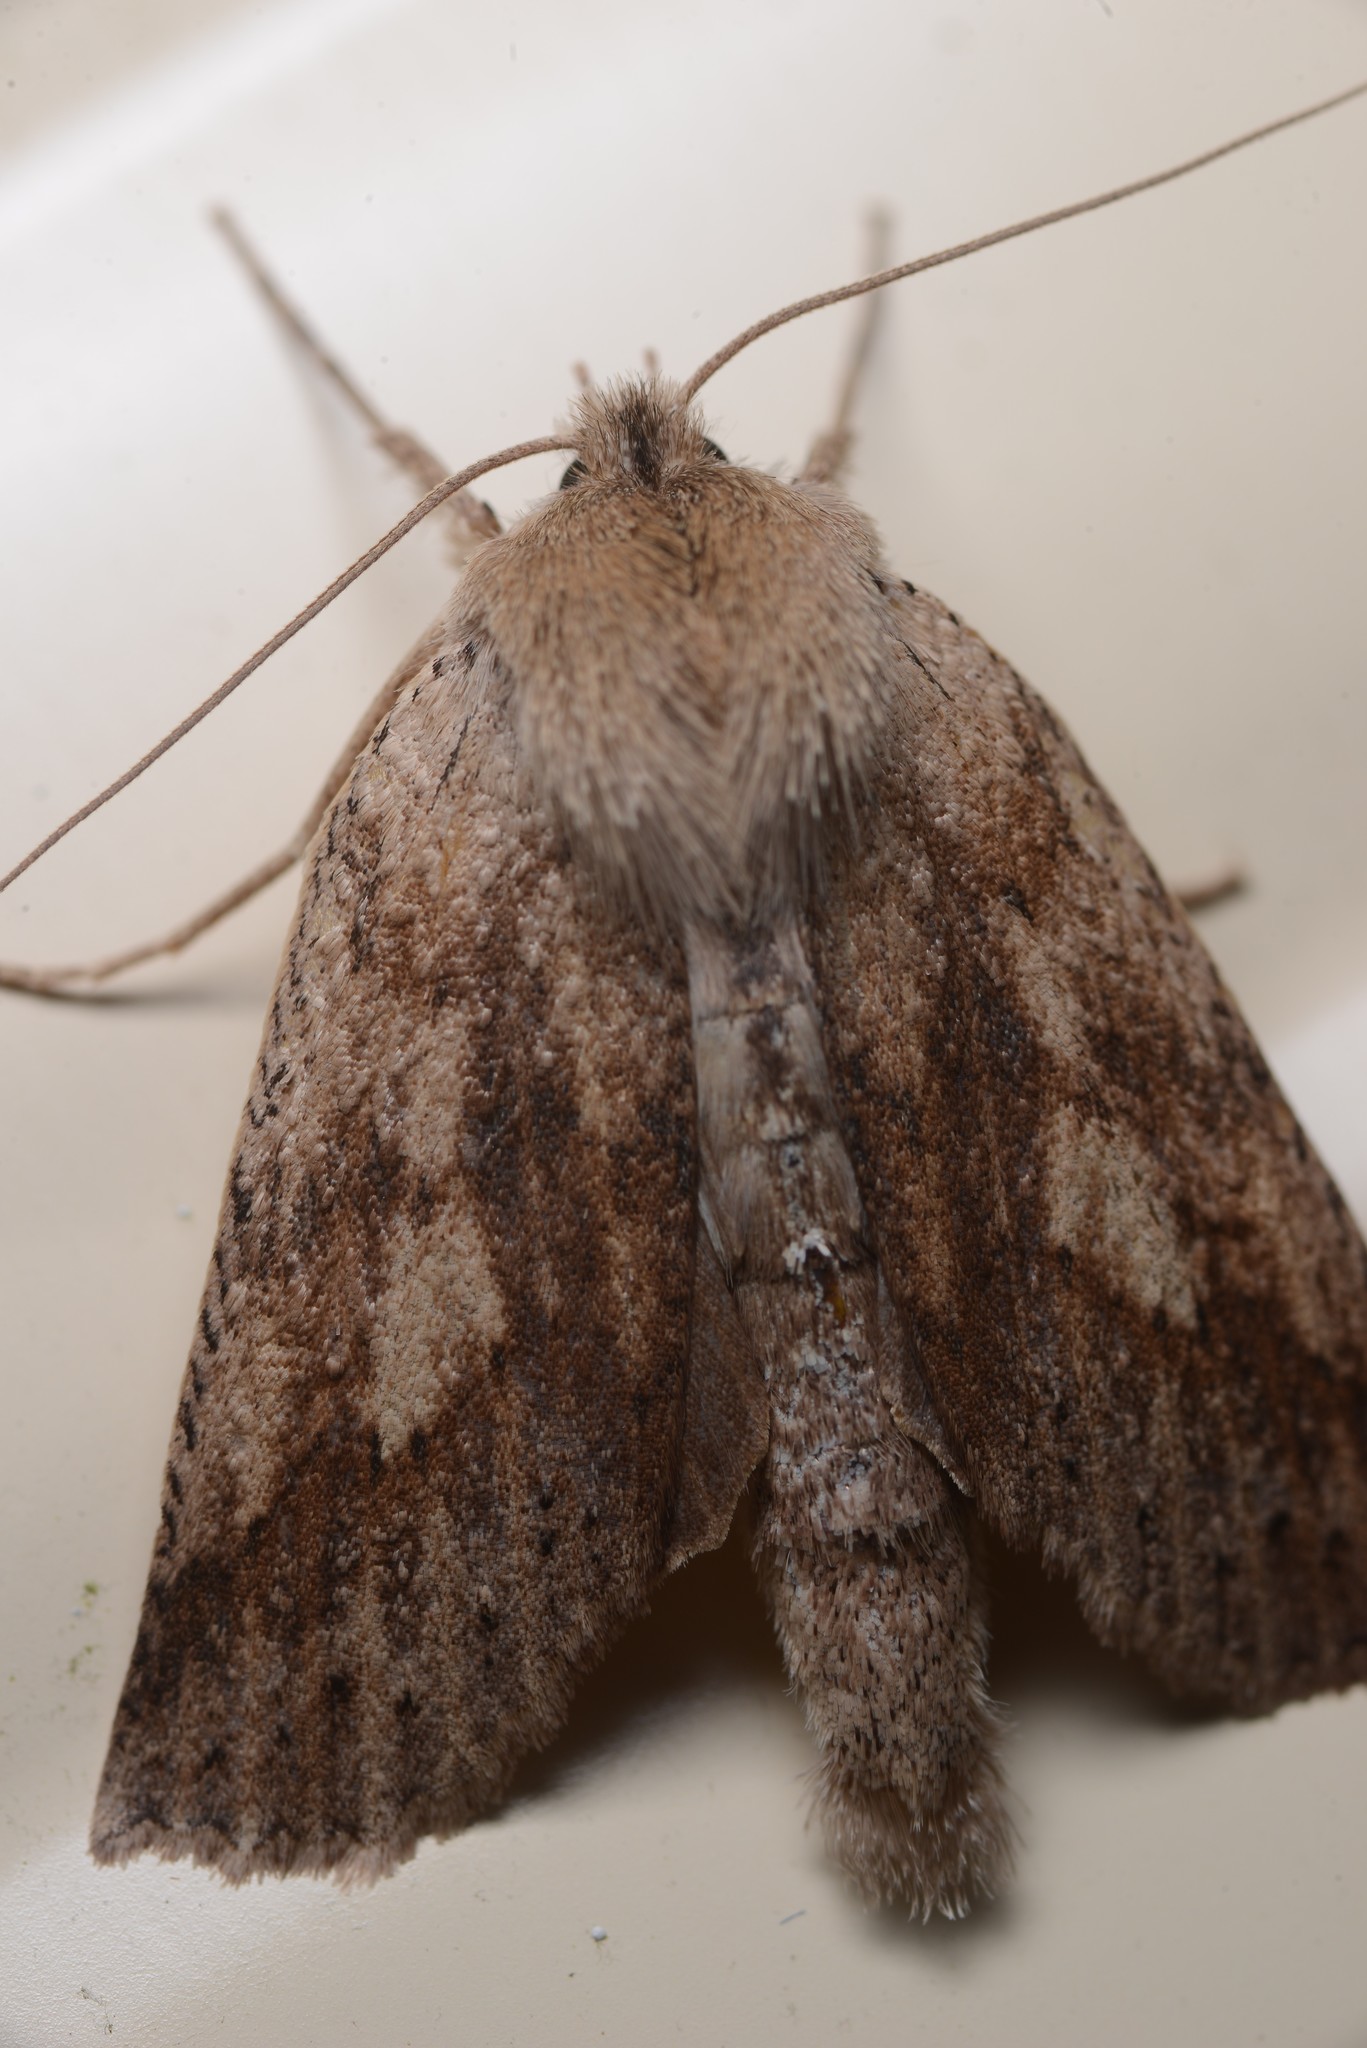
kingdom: Animalia
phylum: Arthropoda
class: Insecta
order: Lepidoptera
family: Geometridae
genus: Declana
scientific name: Declana leptomera
